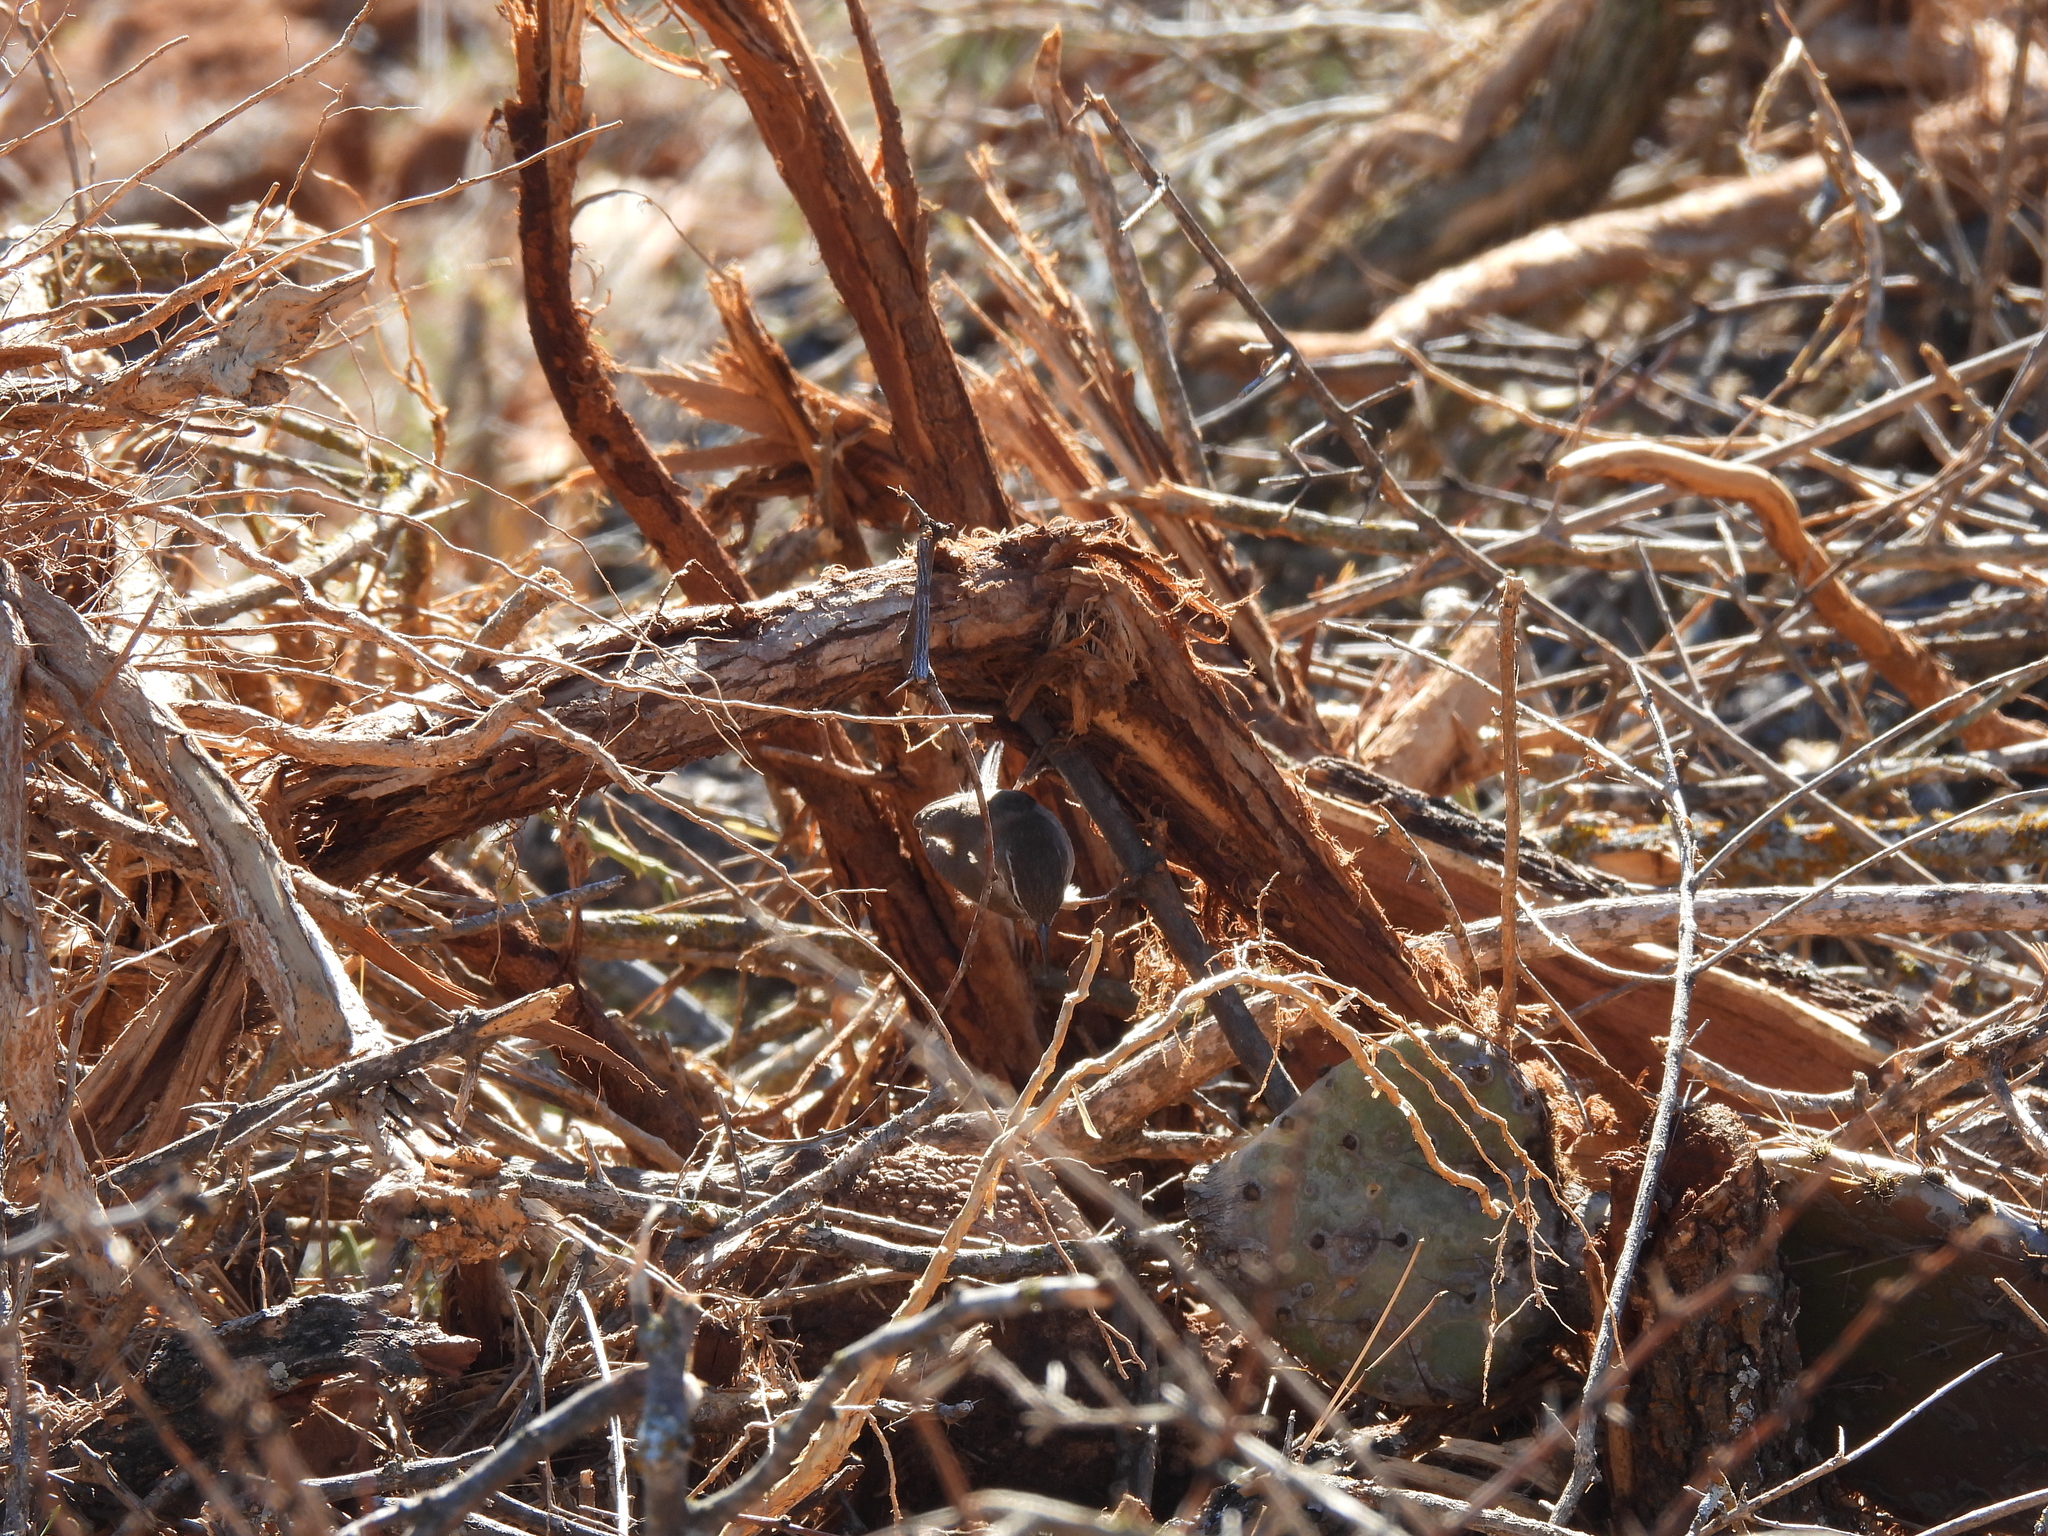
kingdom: Animalia
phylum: Chordata
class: Aves
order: Passeriformes
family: Troglodytidae
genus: Thryomanes
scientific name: Thryomanes bewickii
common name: Bewick's wren
